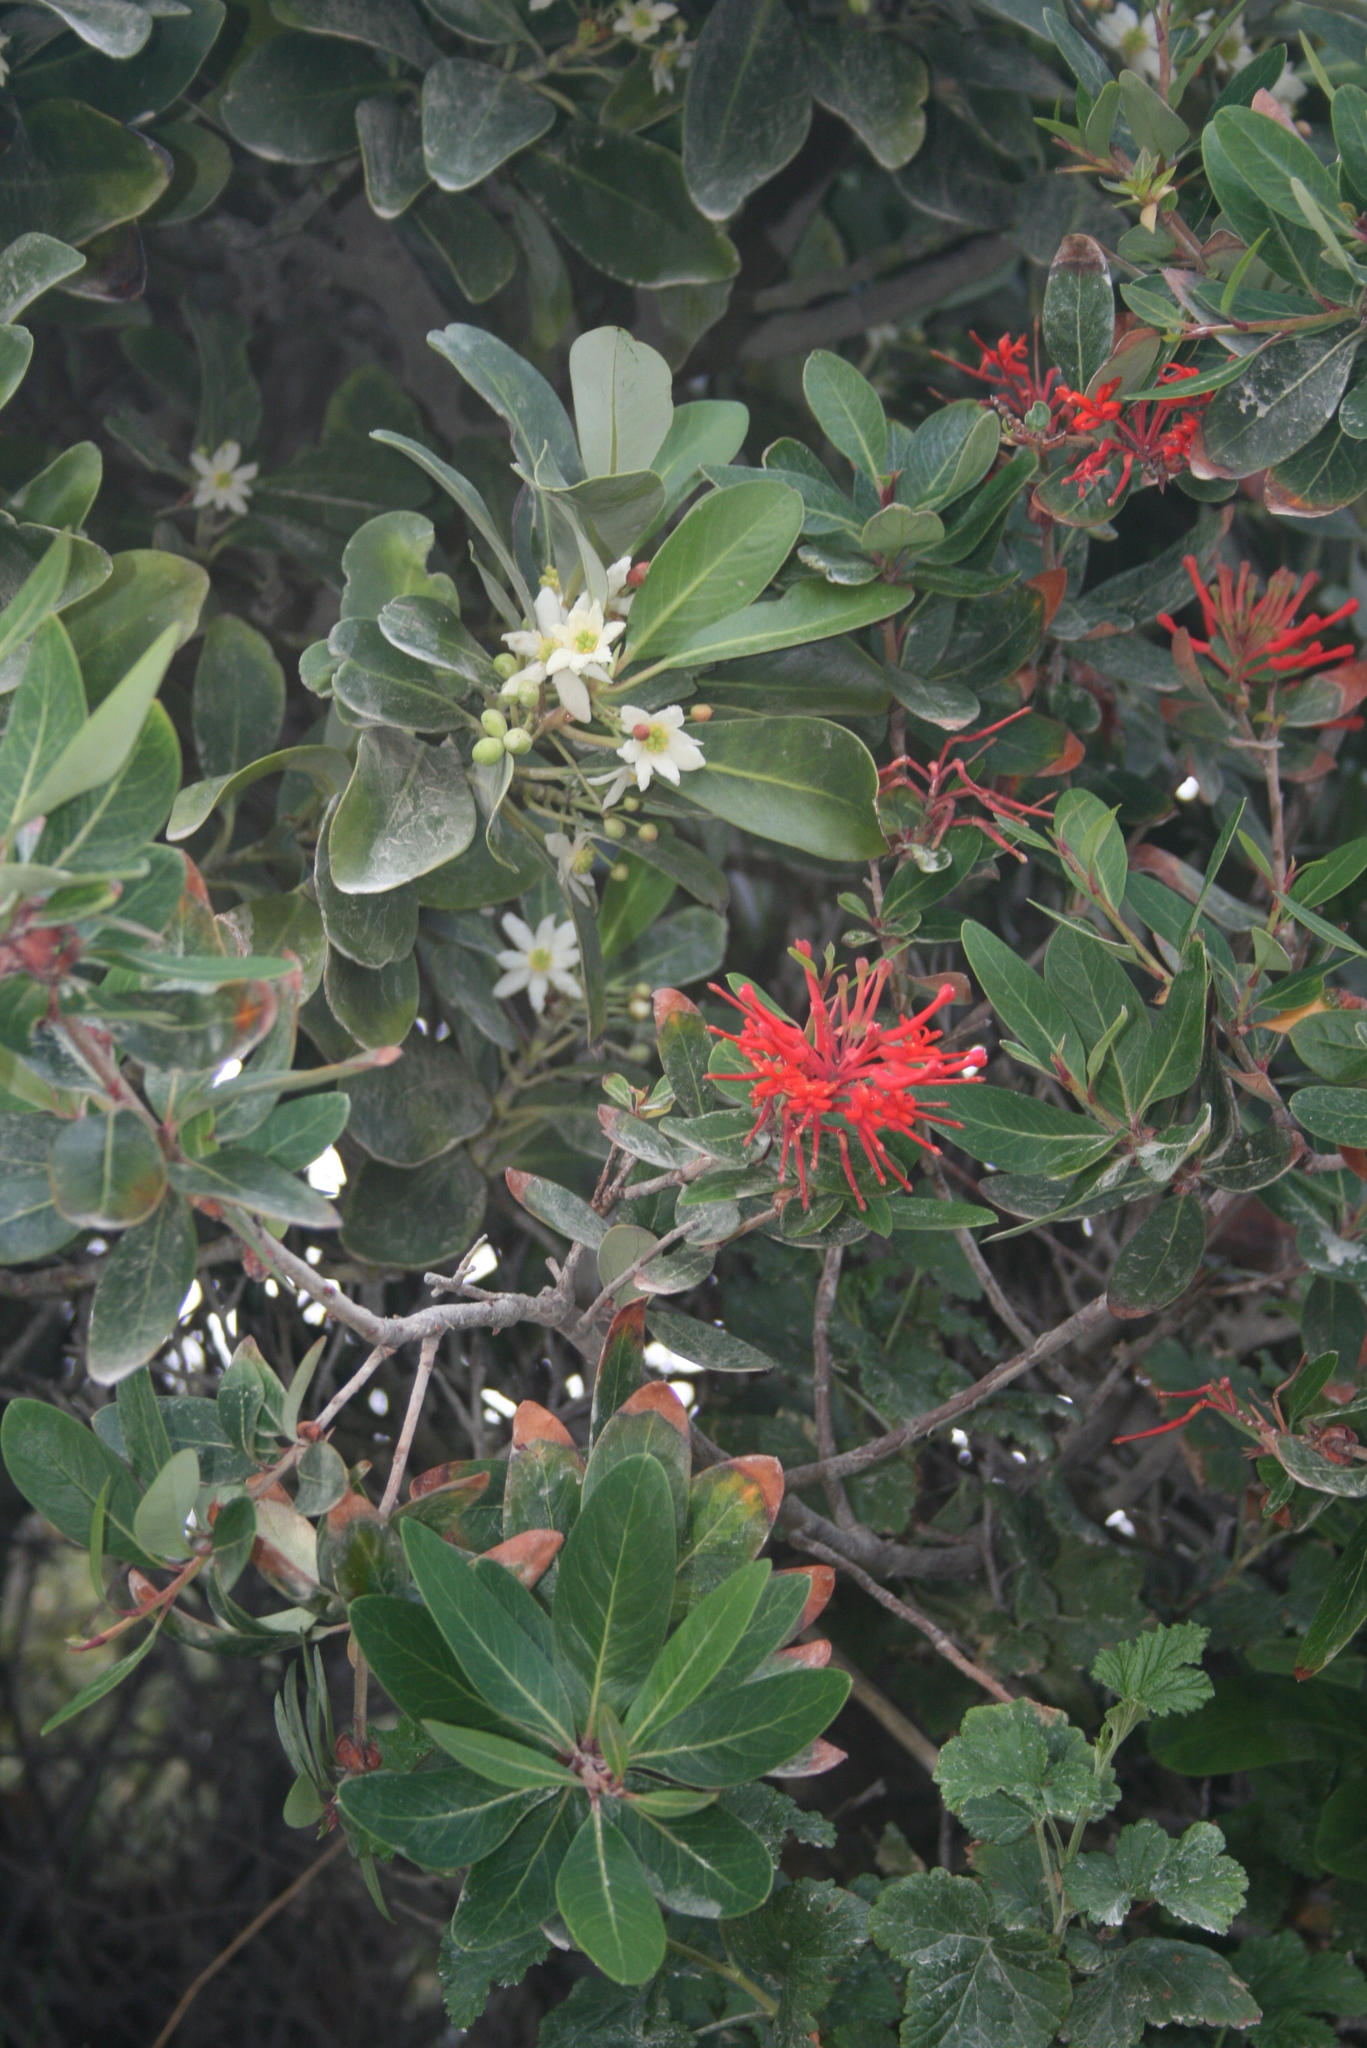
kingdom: Plantae
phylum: Tracheophyta
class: Magnoliopsida
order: Canellales
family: Winteraceae
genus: Drimys
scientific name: Drimys winteri
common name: Winter's-bark
